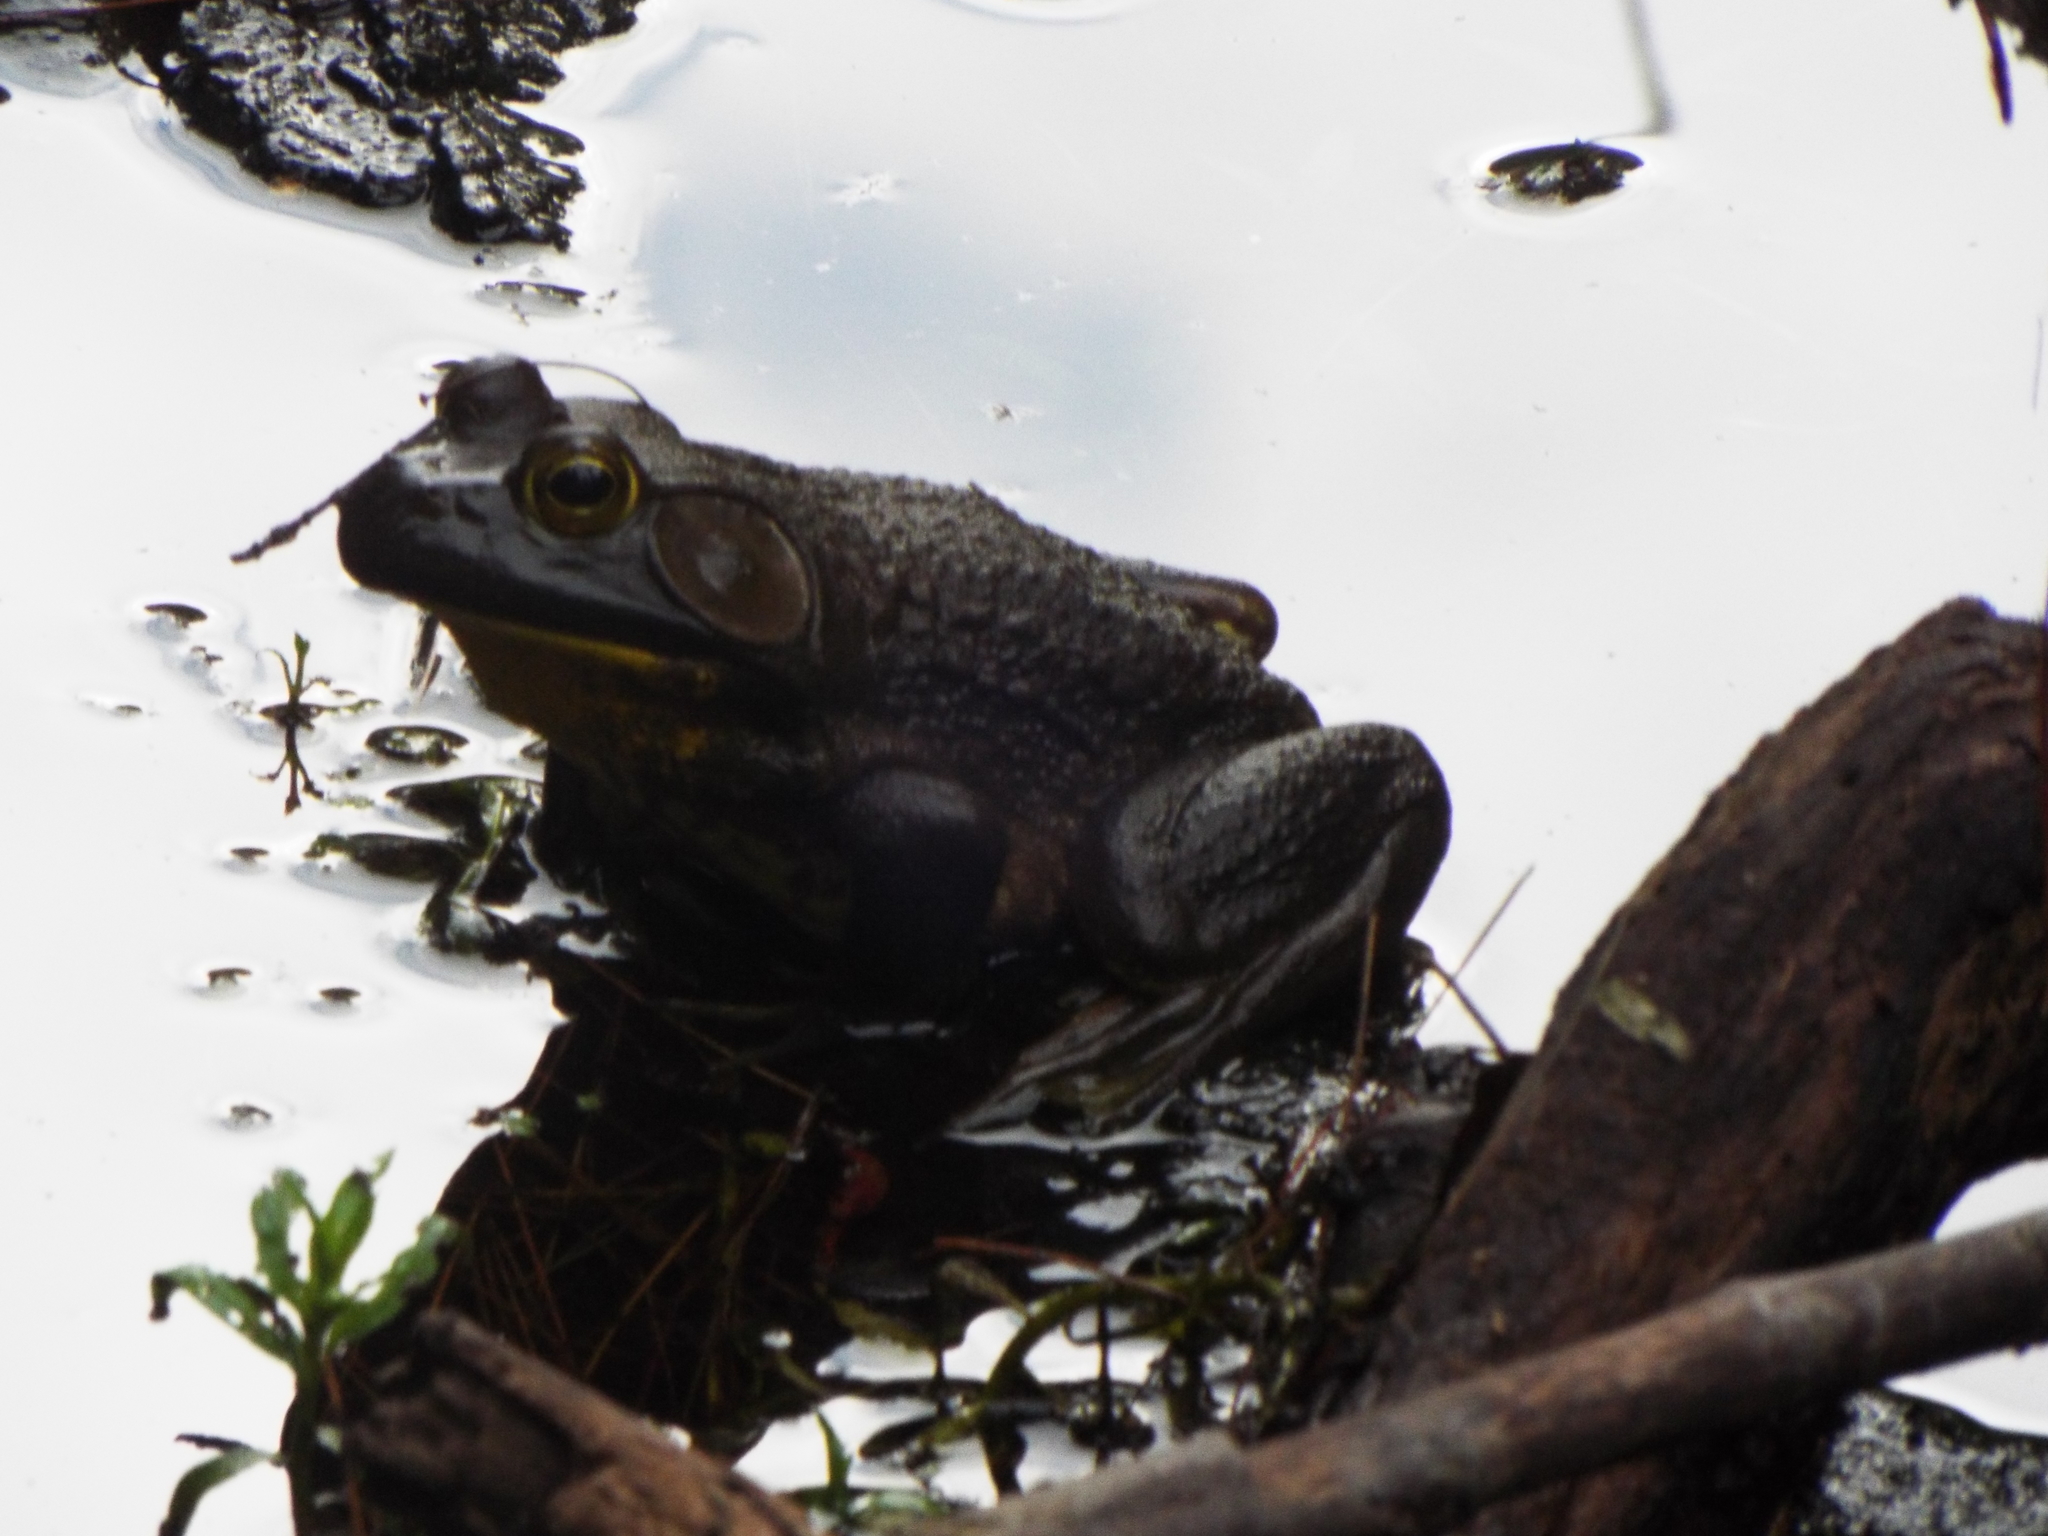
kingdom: Animalia
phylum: Chordata
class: Amphibia
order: Anura
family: Ranidae
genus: Lithobates
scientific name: Lithobates catesbeianus
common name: American bullfrog
